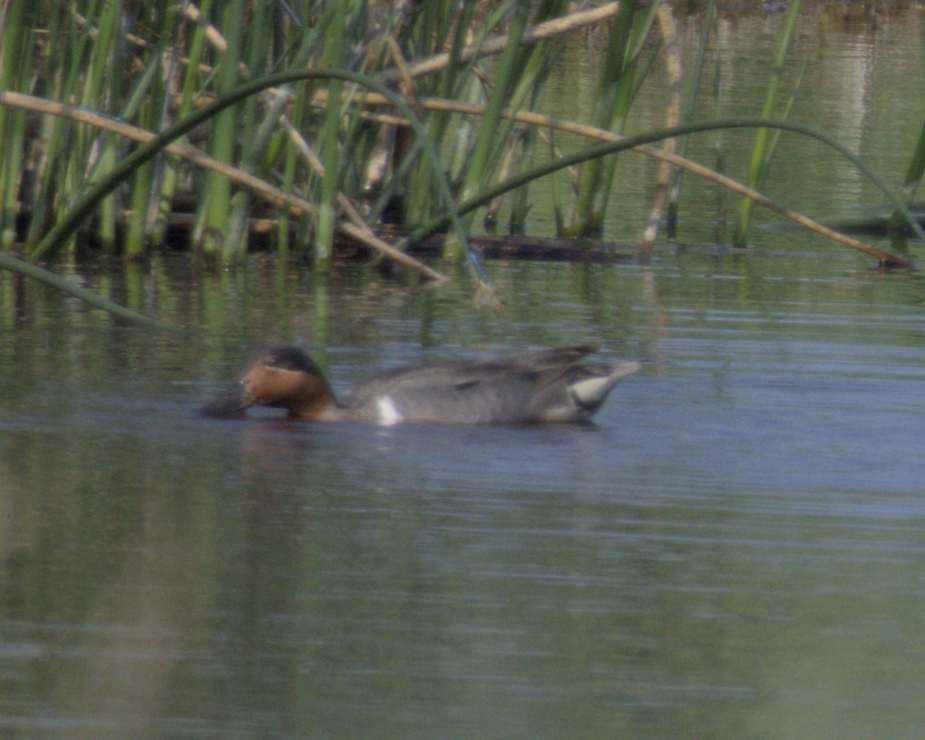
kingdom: Animalia
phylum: Chordata
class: Aves
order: Anseriformes
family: Anatidae
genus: Anas
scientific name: Anas crecca
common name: Eurasian teal
